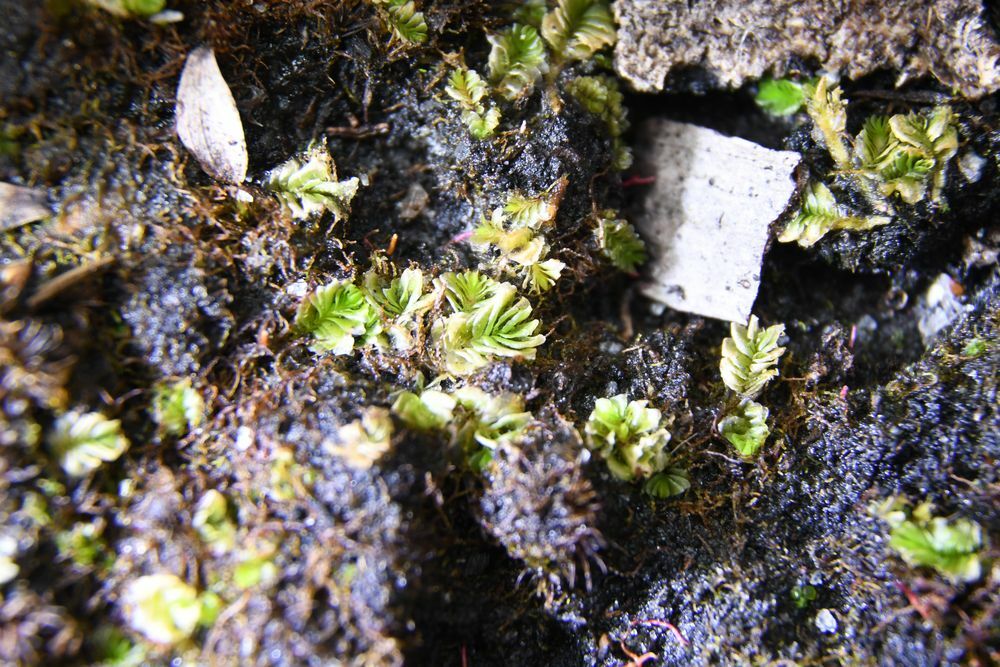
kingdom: Plantae
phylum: Marchantiophyta
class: Jungermanniopsida
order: Jungermanniales
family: Acrobolbaceae
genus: Lethocolea
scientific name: Lethocolea pansa
